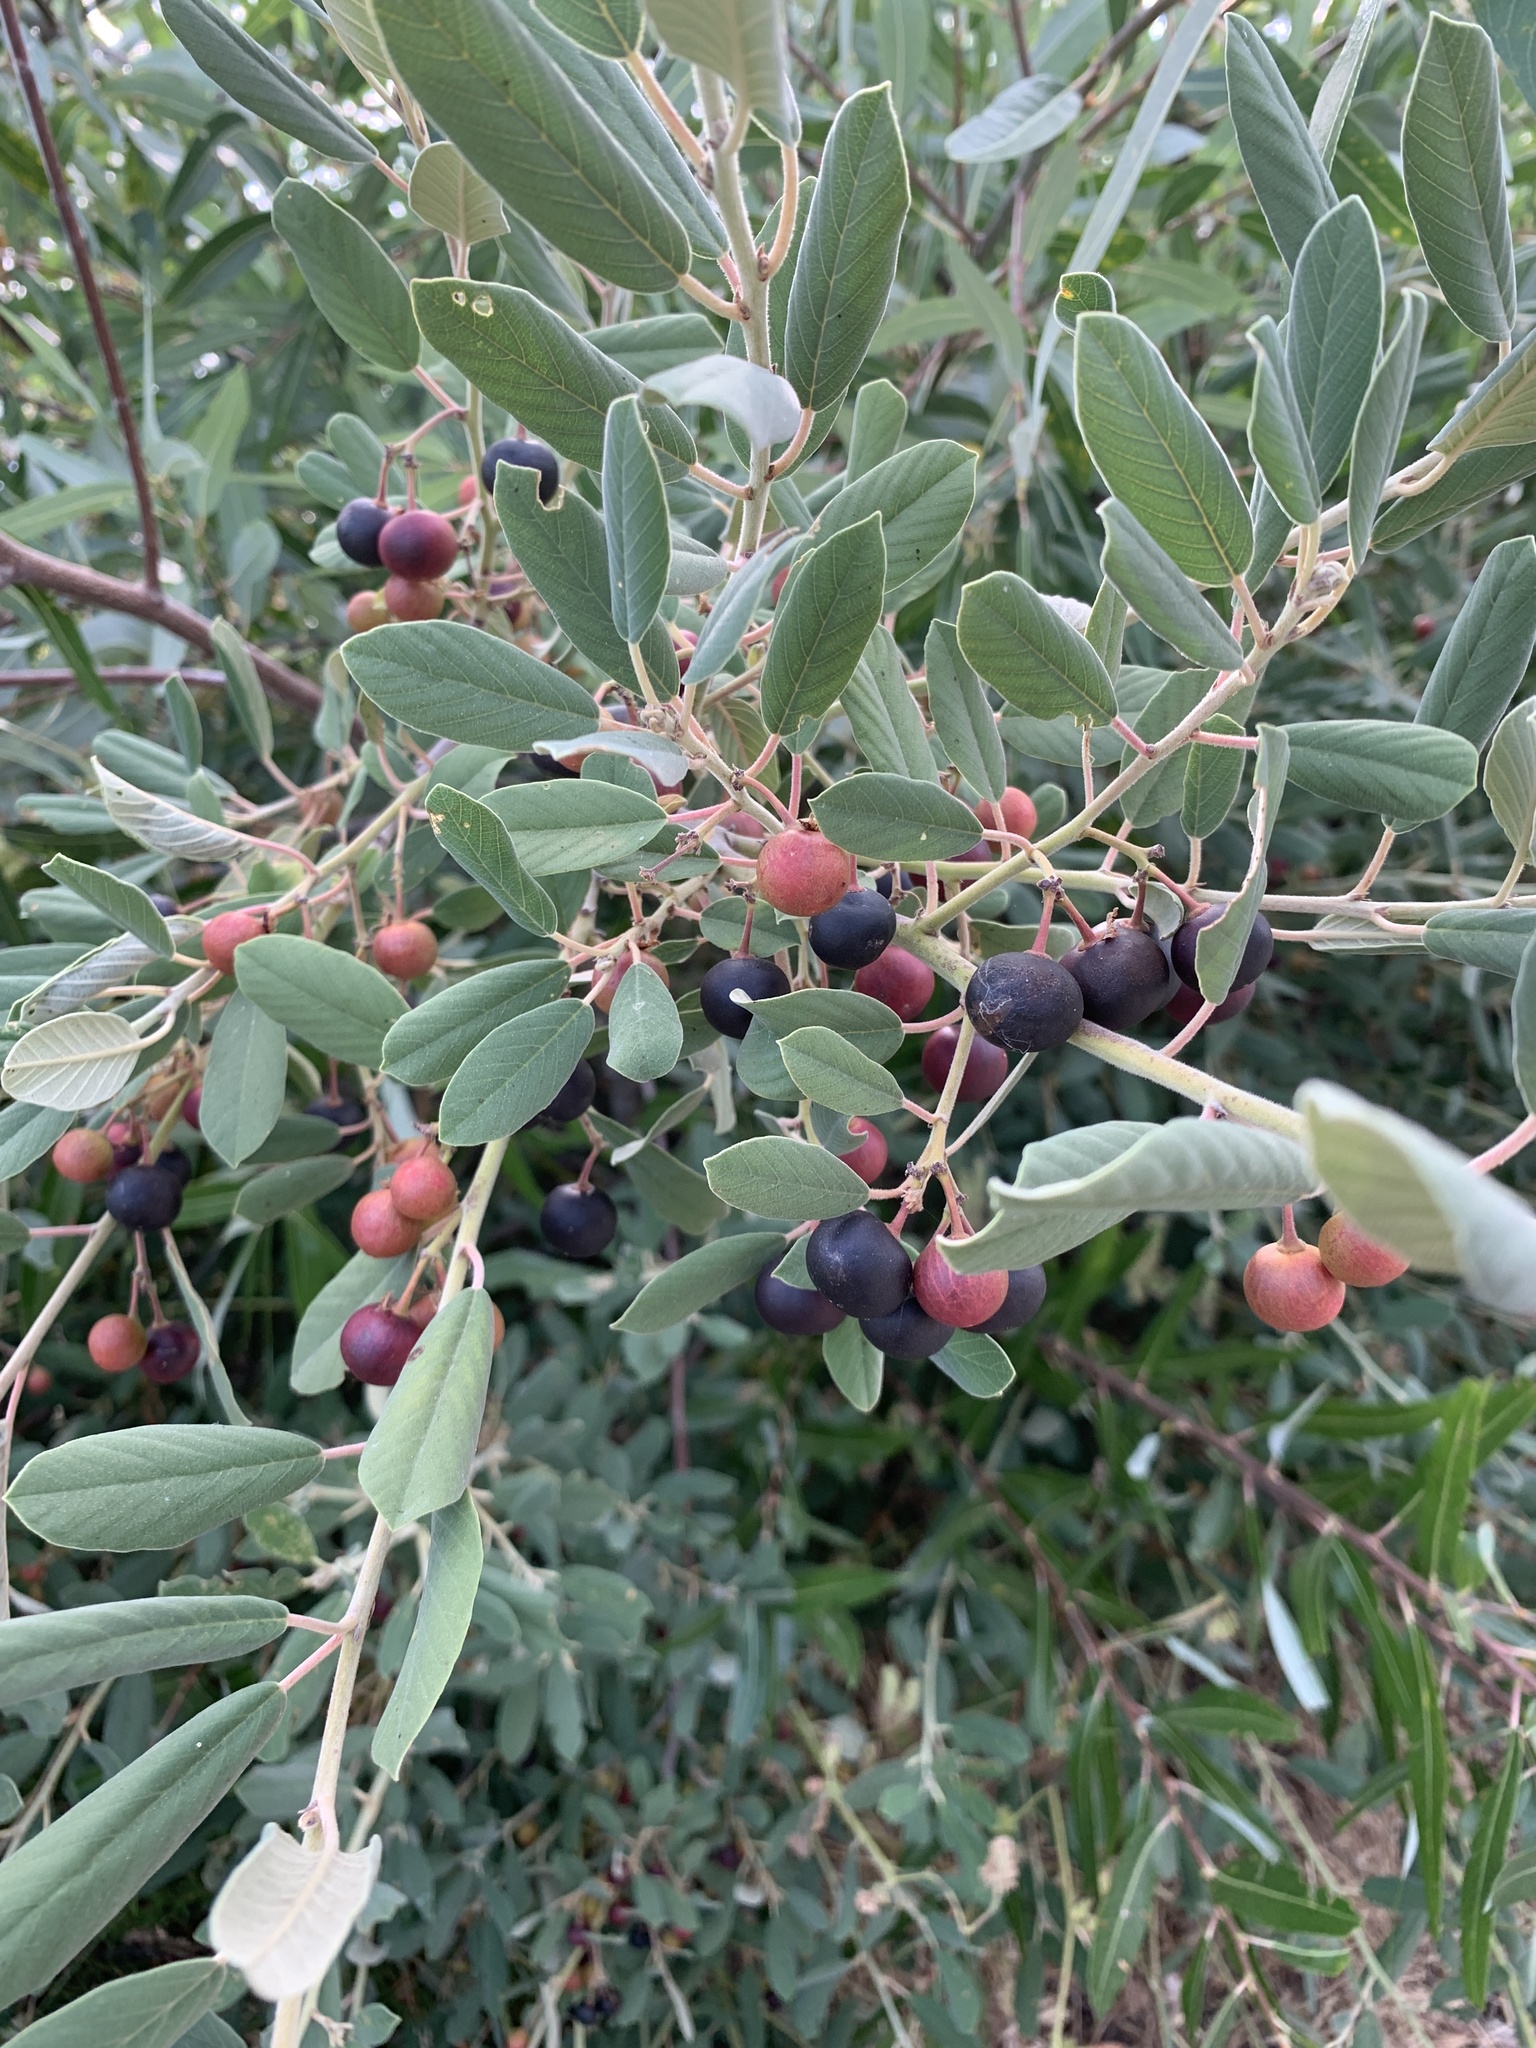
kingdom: Plantae
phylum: Tracheophyta
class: Magnoliopsida
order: Rosales
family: Rhamnaceae
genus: Frangula
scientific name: Frangula californica
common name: California buckthorn
